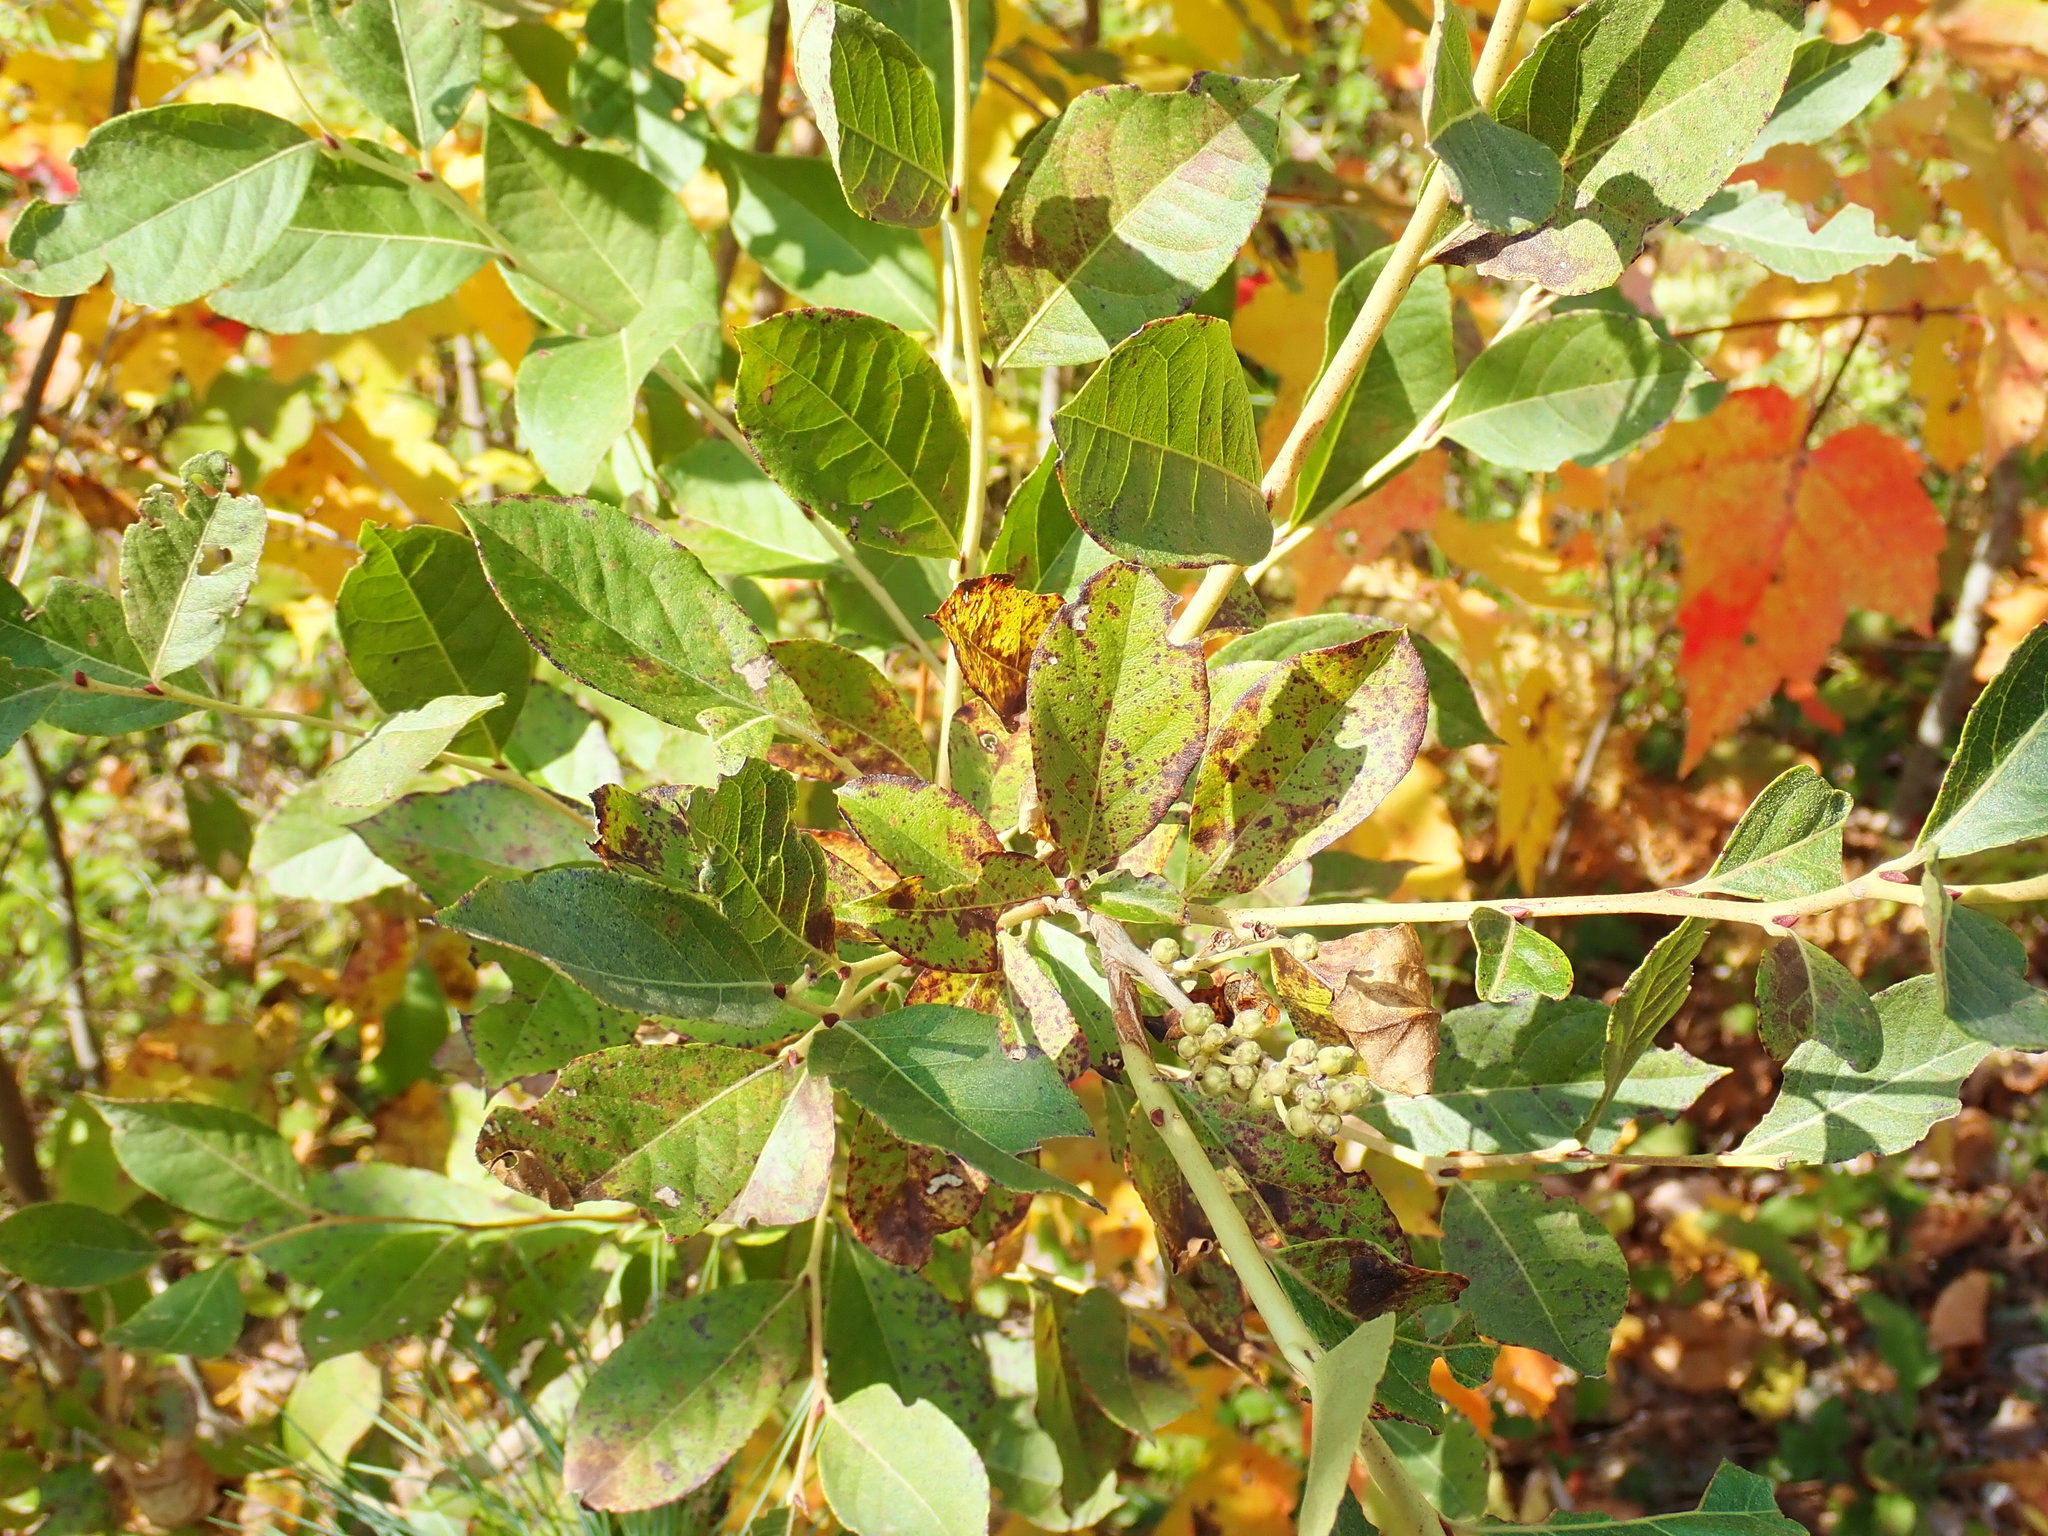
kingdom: Plantae
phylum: Tracheophyta
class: Magnoliopsida
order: Ericales
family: Ericaceae
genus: Lyonia
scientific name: Lyonia ligustrina
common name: Maleberry
